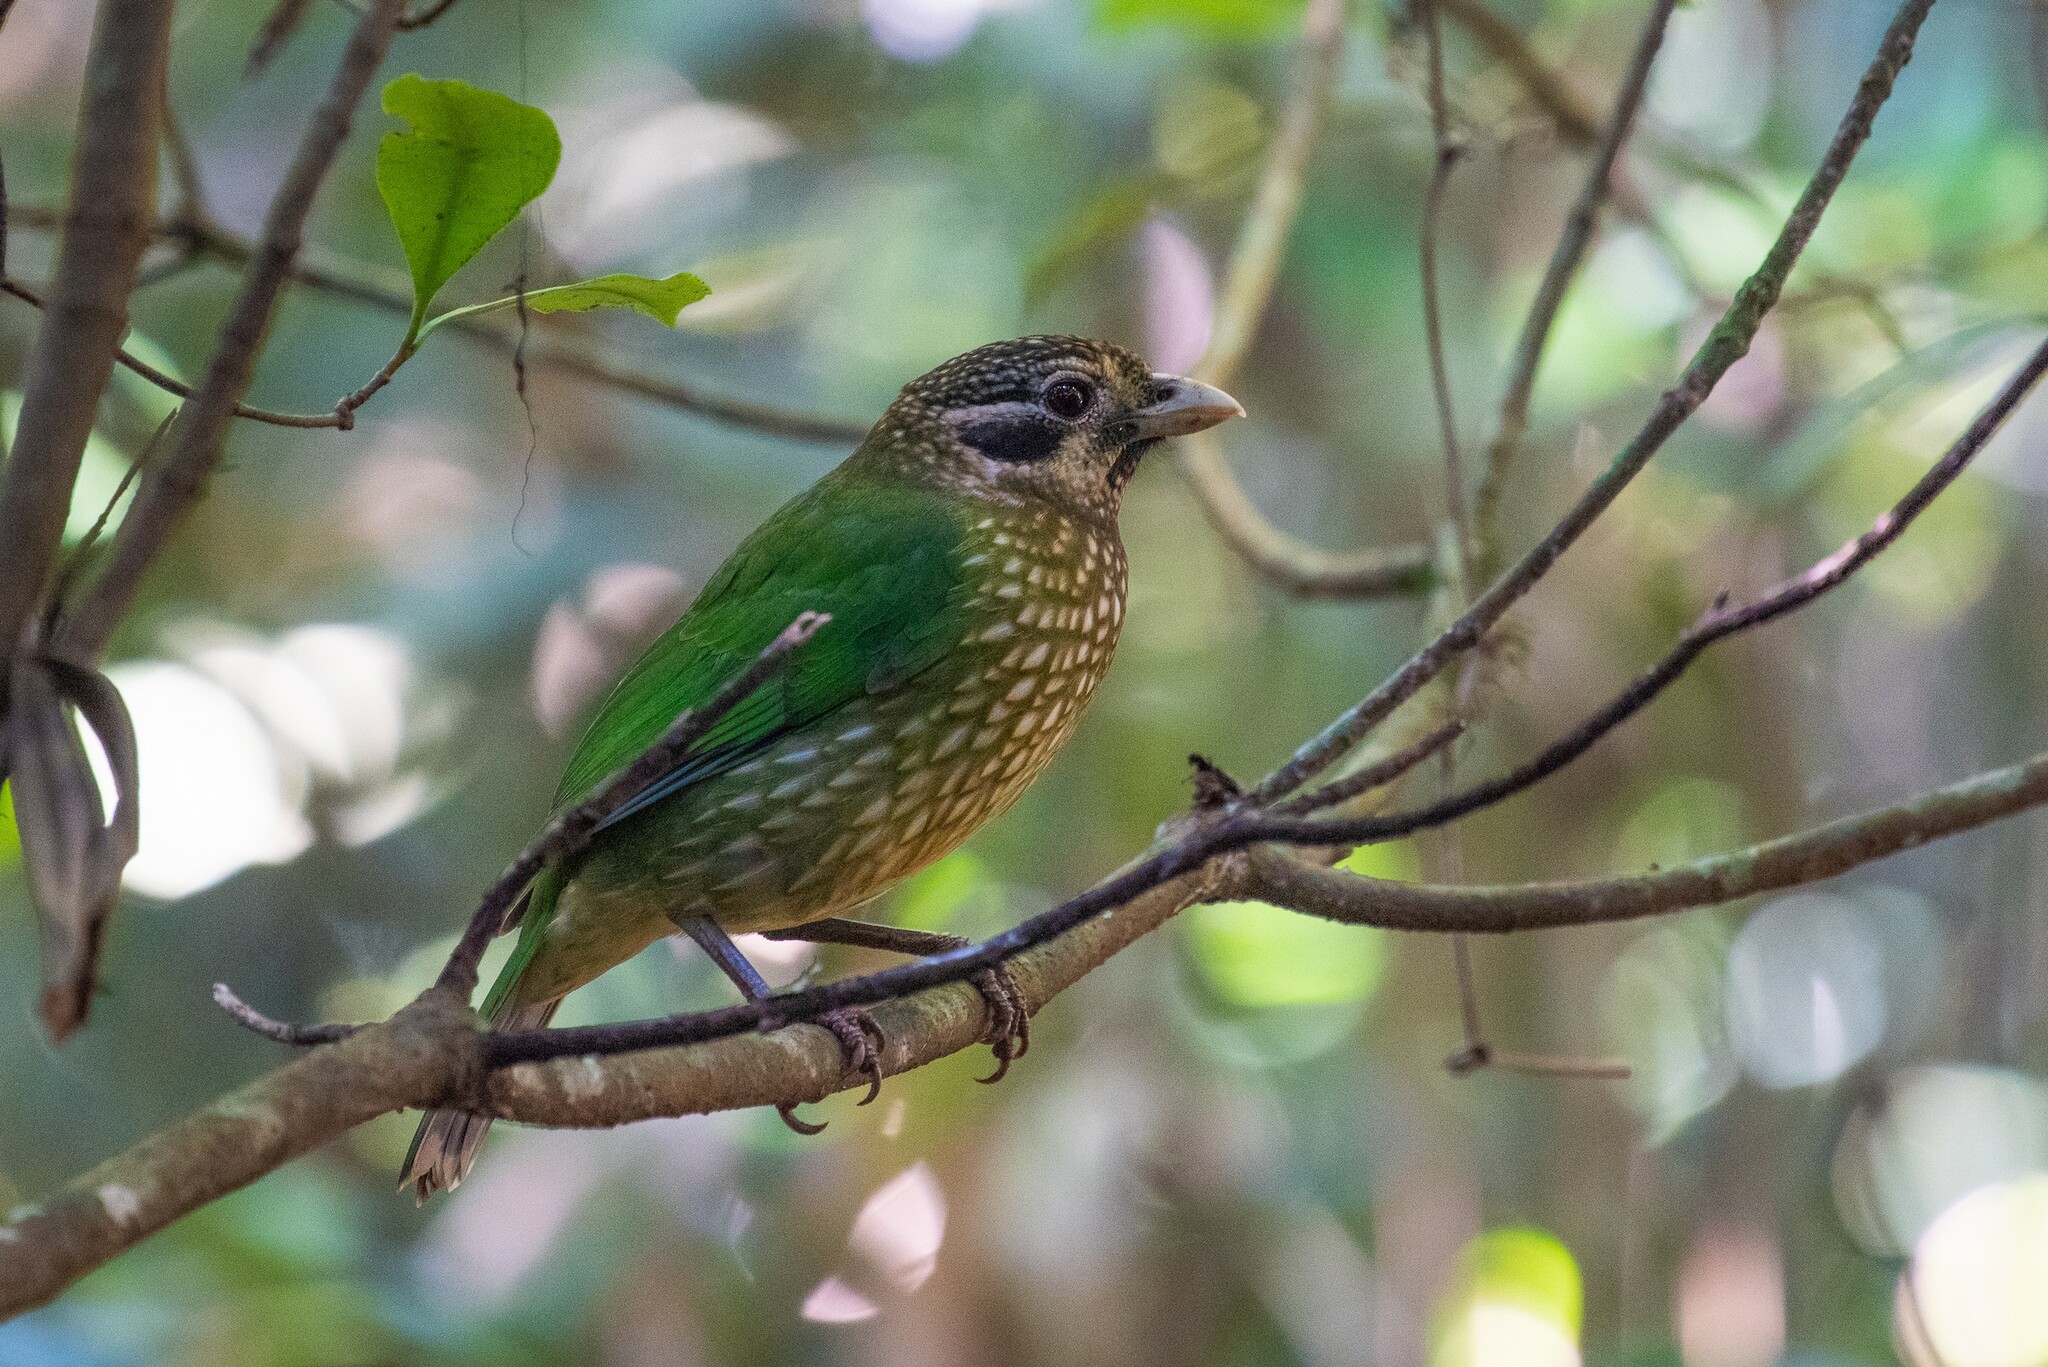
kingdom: Animalia
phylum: Chordata
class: Aves
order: Passeriformes
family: Ptilonorhynchidae
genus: Ailuroedus
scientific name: Ailuroedus maculosus
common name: Spotted catbird
